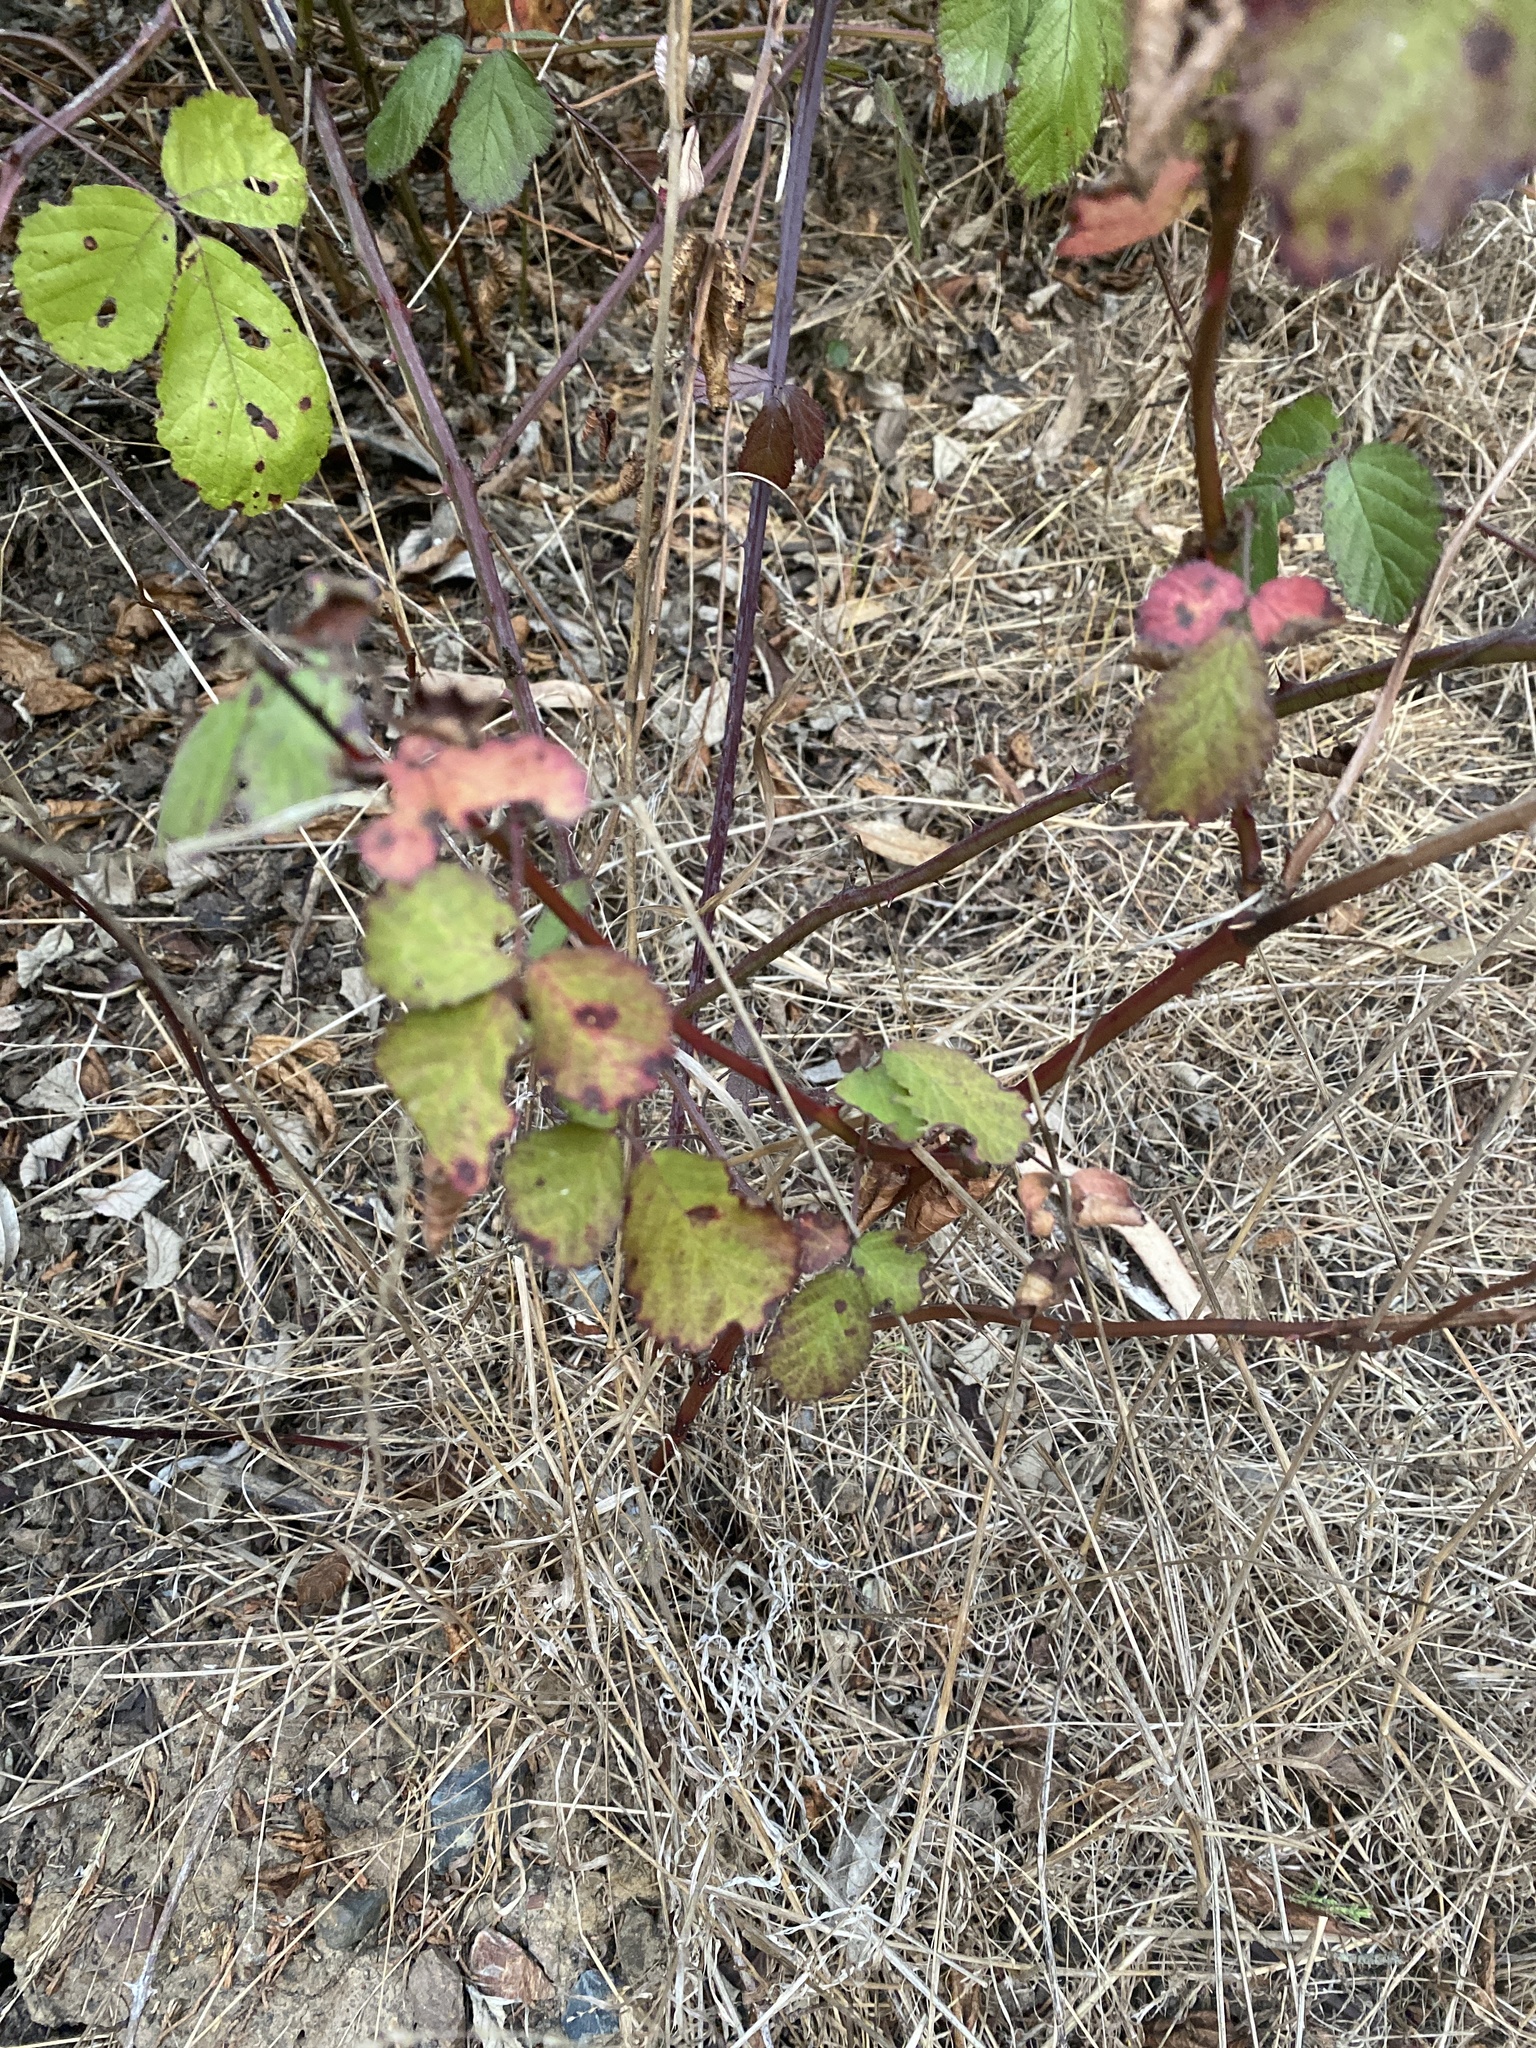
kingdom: Plantae
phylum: Tracheophyta
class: Magnoliopsida
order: Rosales
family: Rosaceae
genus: Rubus
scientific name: Rubus armeniacus
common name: Himalayan blackberry
